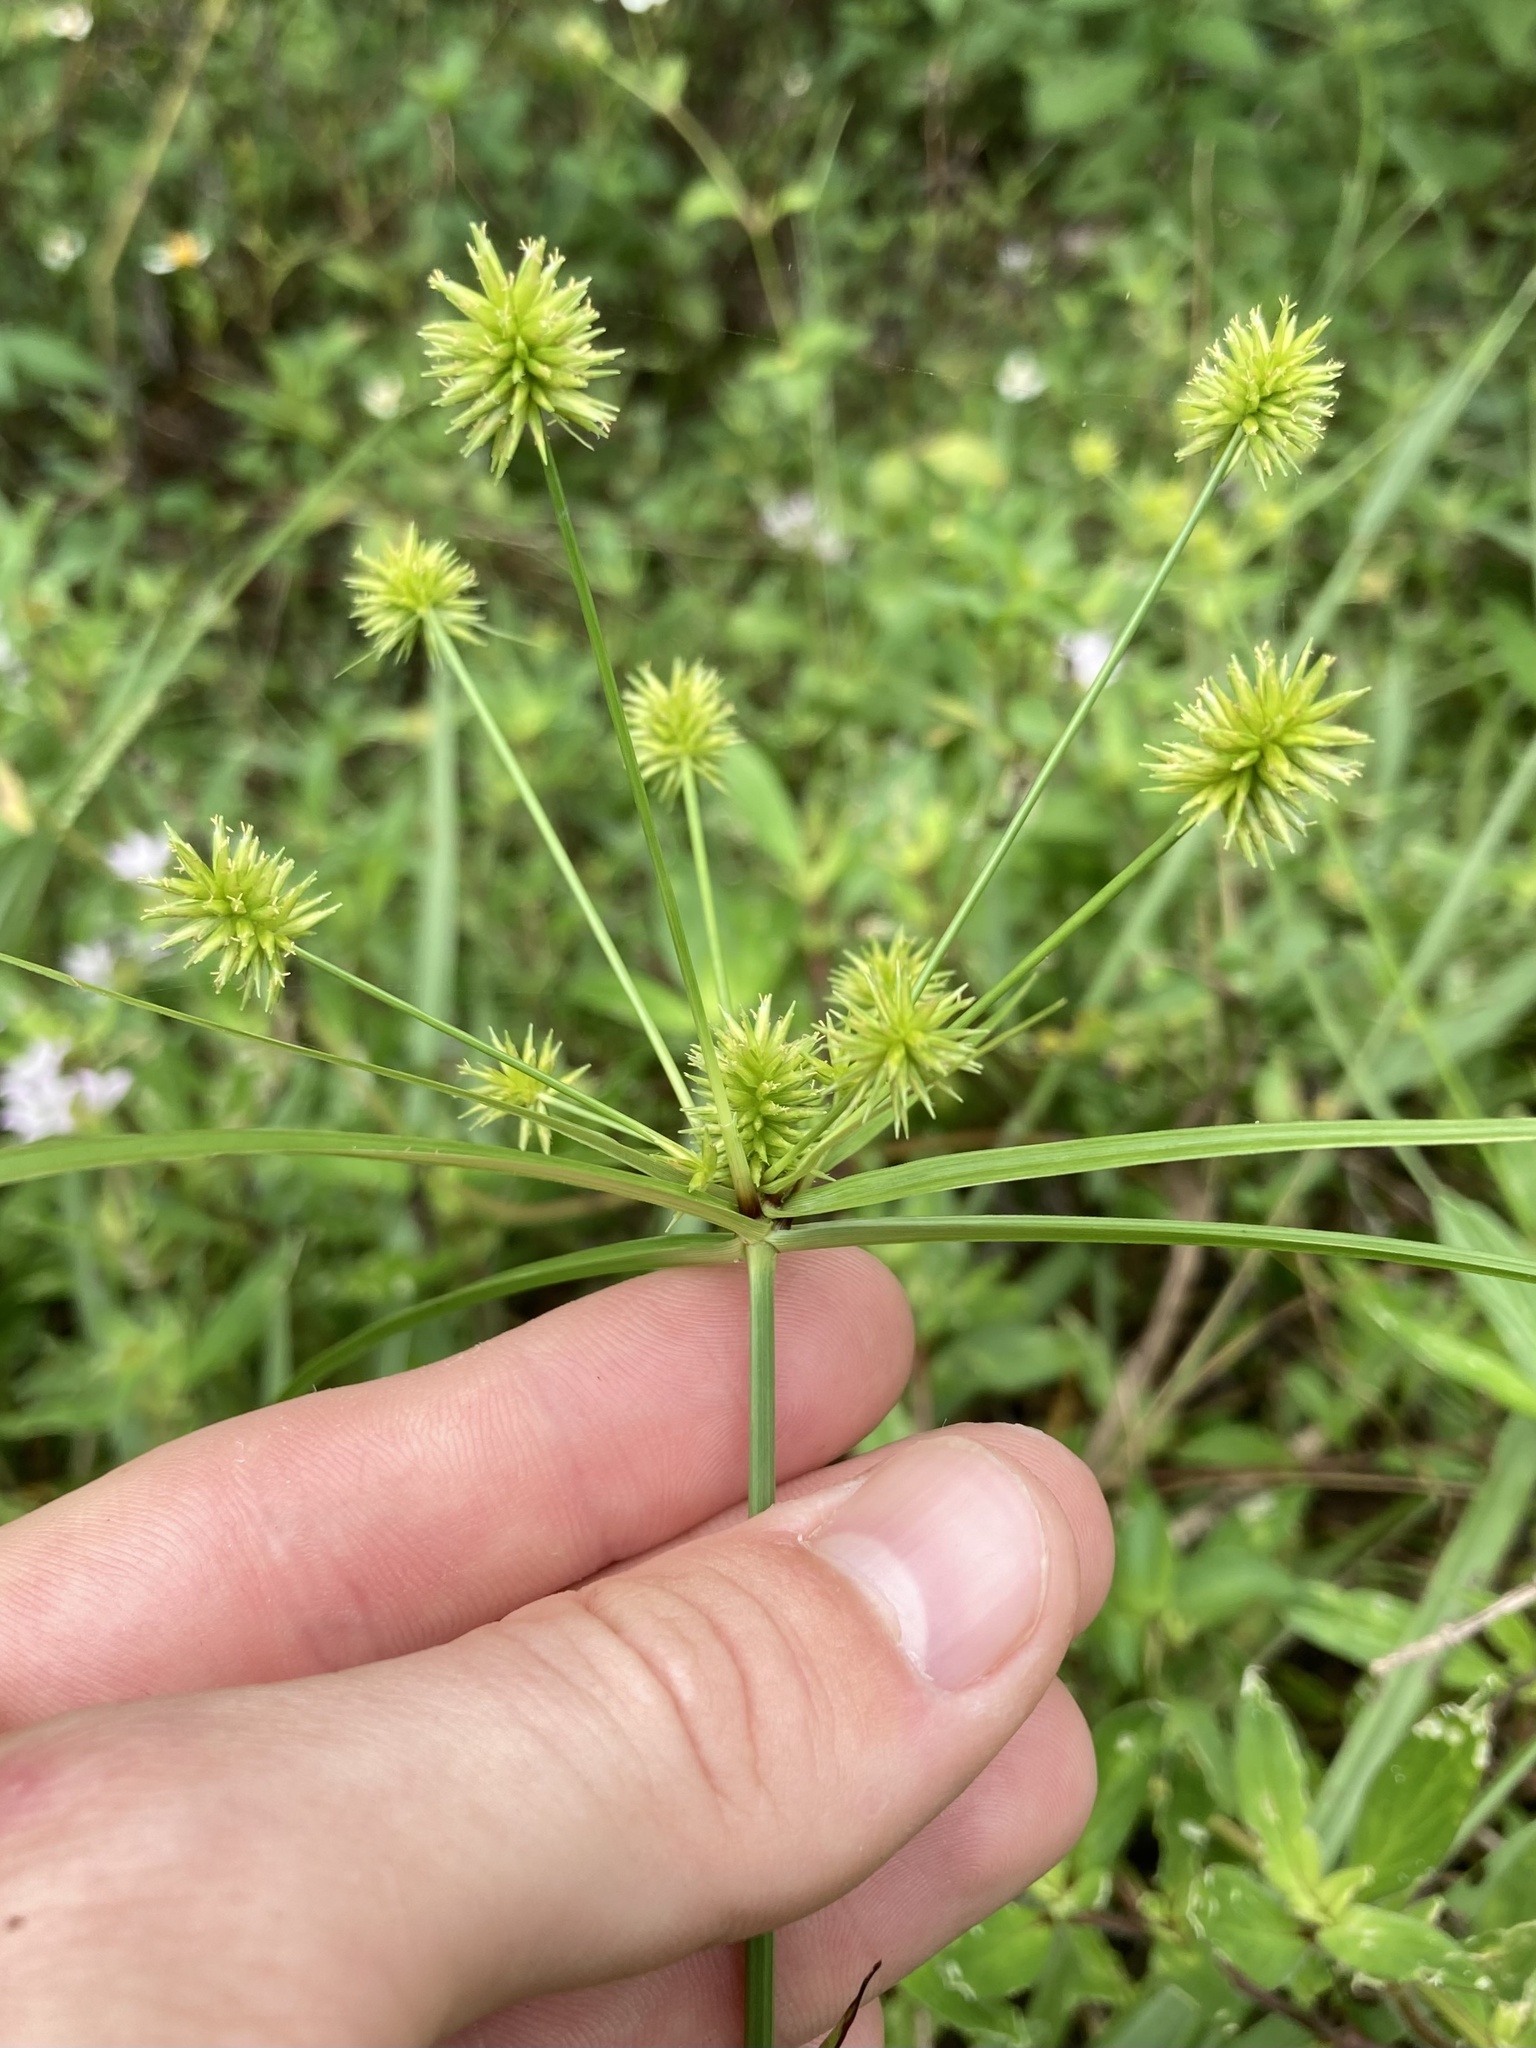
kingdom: Plantae
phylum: Tracheophyta
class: Liliopsida
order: Poales
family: Cyperaceae
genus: Cyperus
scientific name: Cyperus croceus
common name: Baldwin's flatsedge
